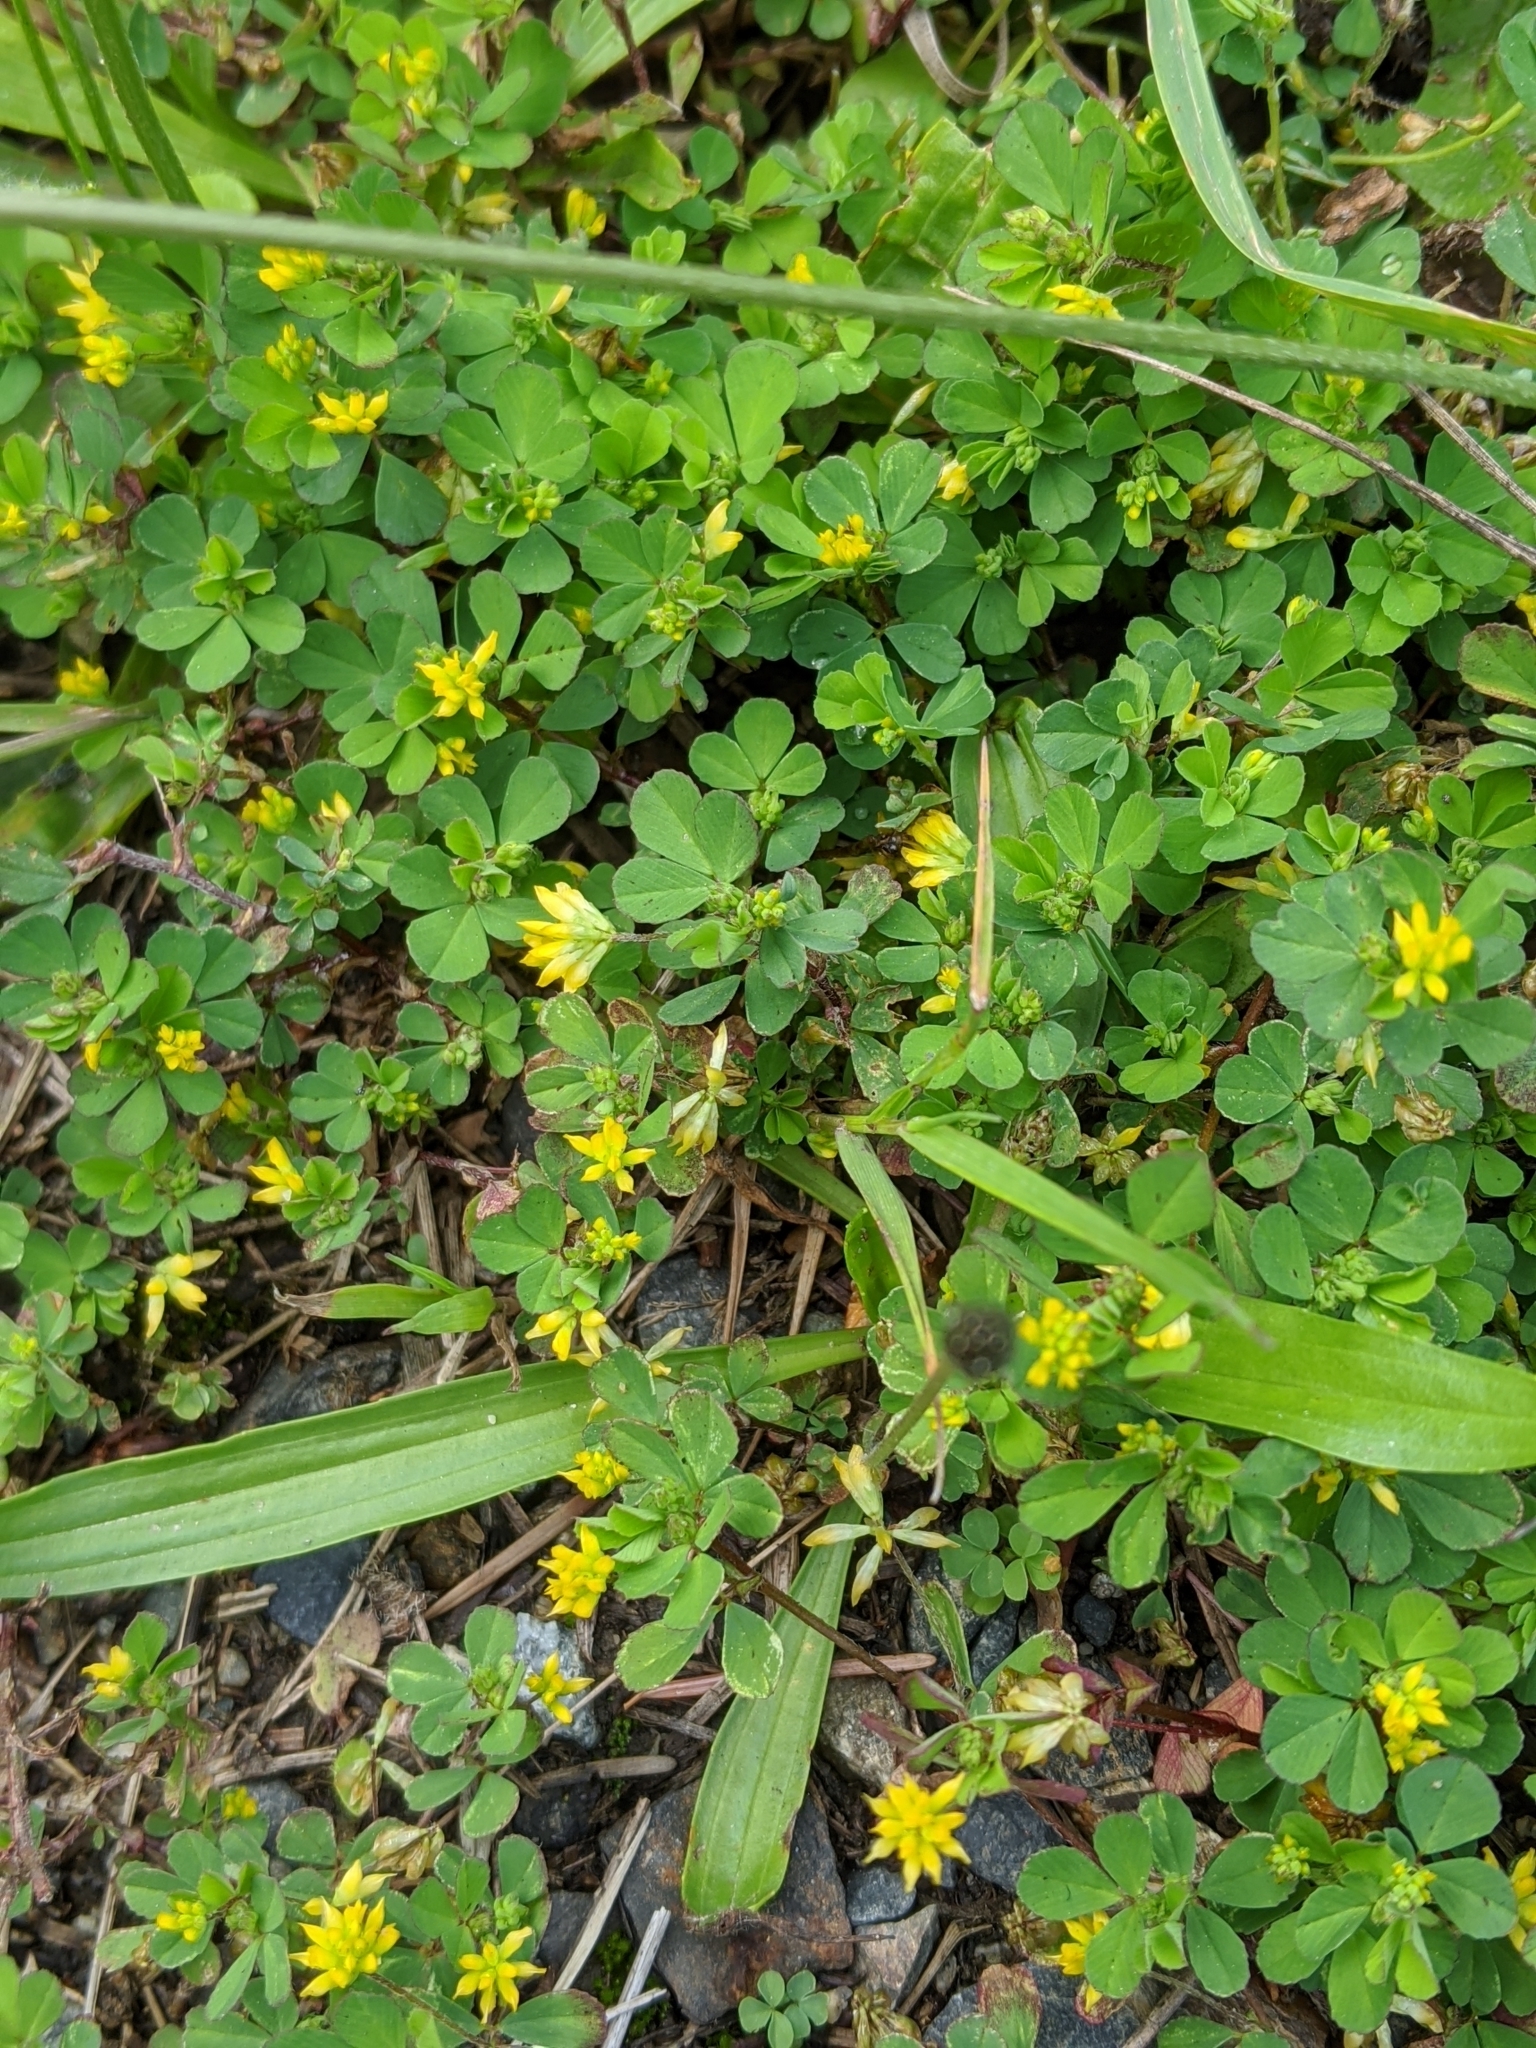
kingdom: Plantae
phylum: Tracheophyta
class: Magnoliopsida
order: Fabales
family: Fabaceae
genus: Trifolium
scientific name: Trifolium dubium
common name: Suckling clover
